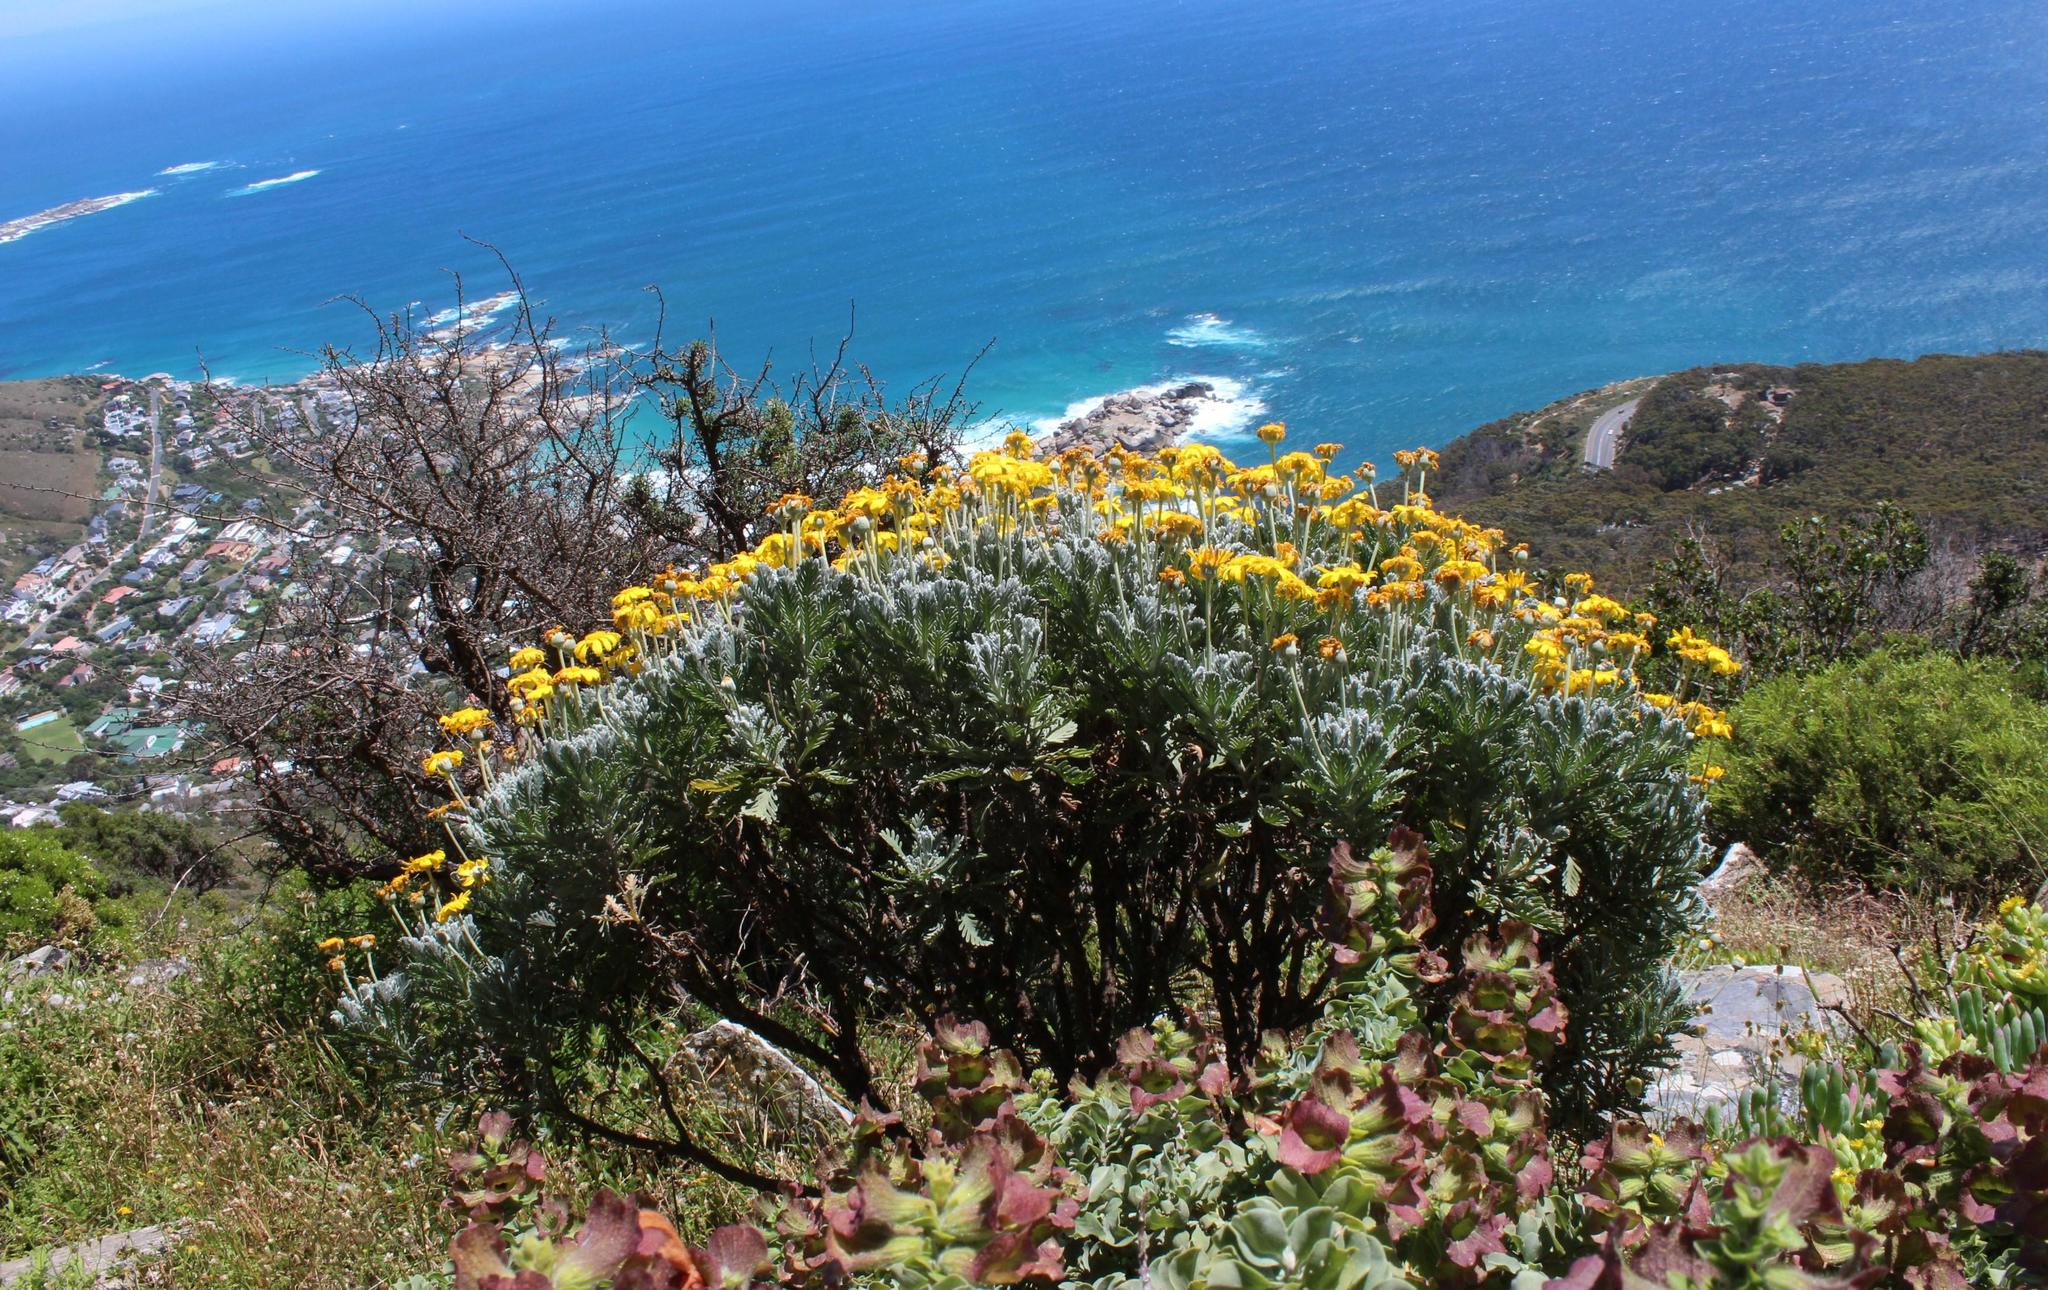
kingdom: Plantae
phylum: Tracheophyta
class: Magnoliopsida
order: Asterales
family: Asteraceae
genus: Euryops
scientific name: Euryops pectinatus
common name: Gray-leaf euryops
